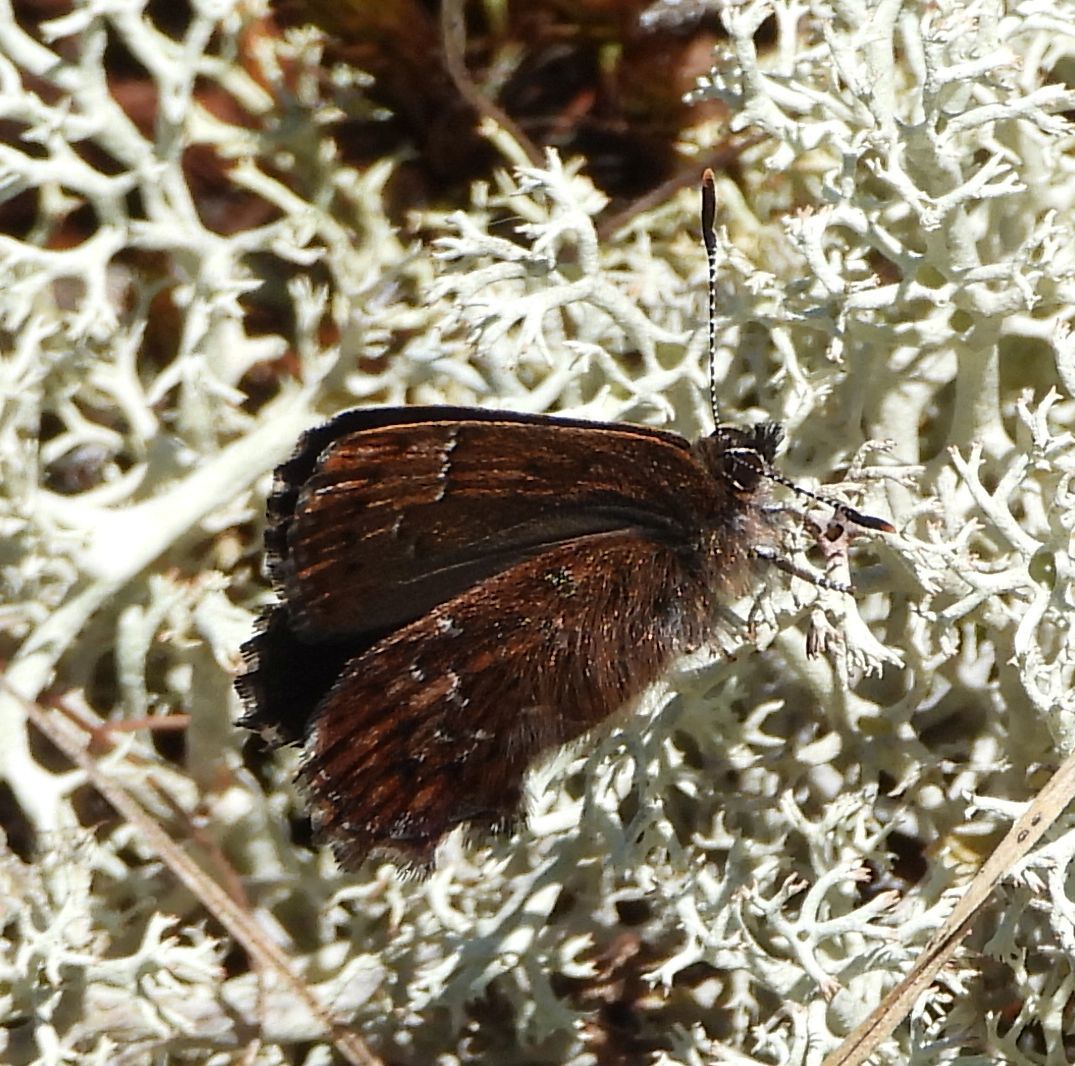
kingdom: Animalia
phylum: Arthropoda
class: Insecta
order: Lepidoptera
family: Lycaenidae
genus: Incisalia
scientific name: Incisalia niphon
